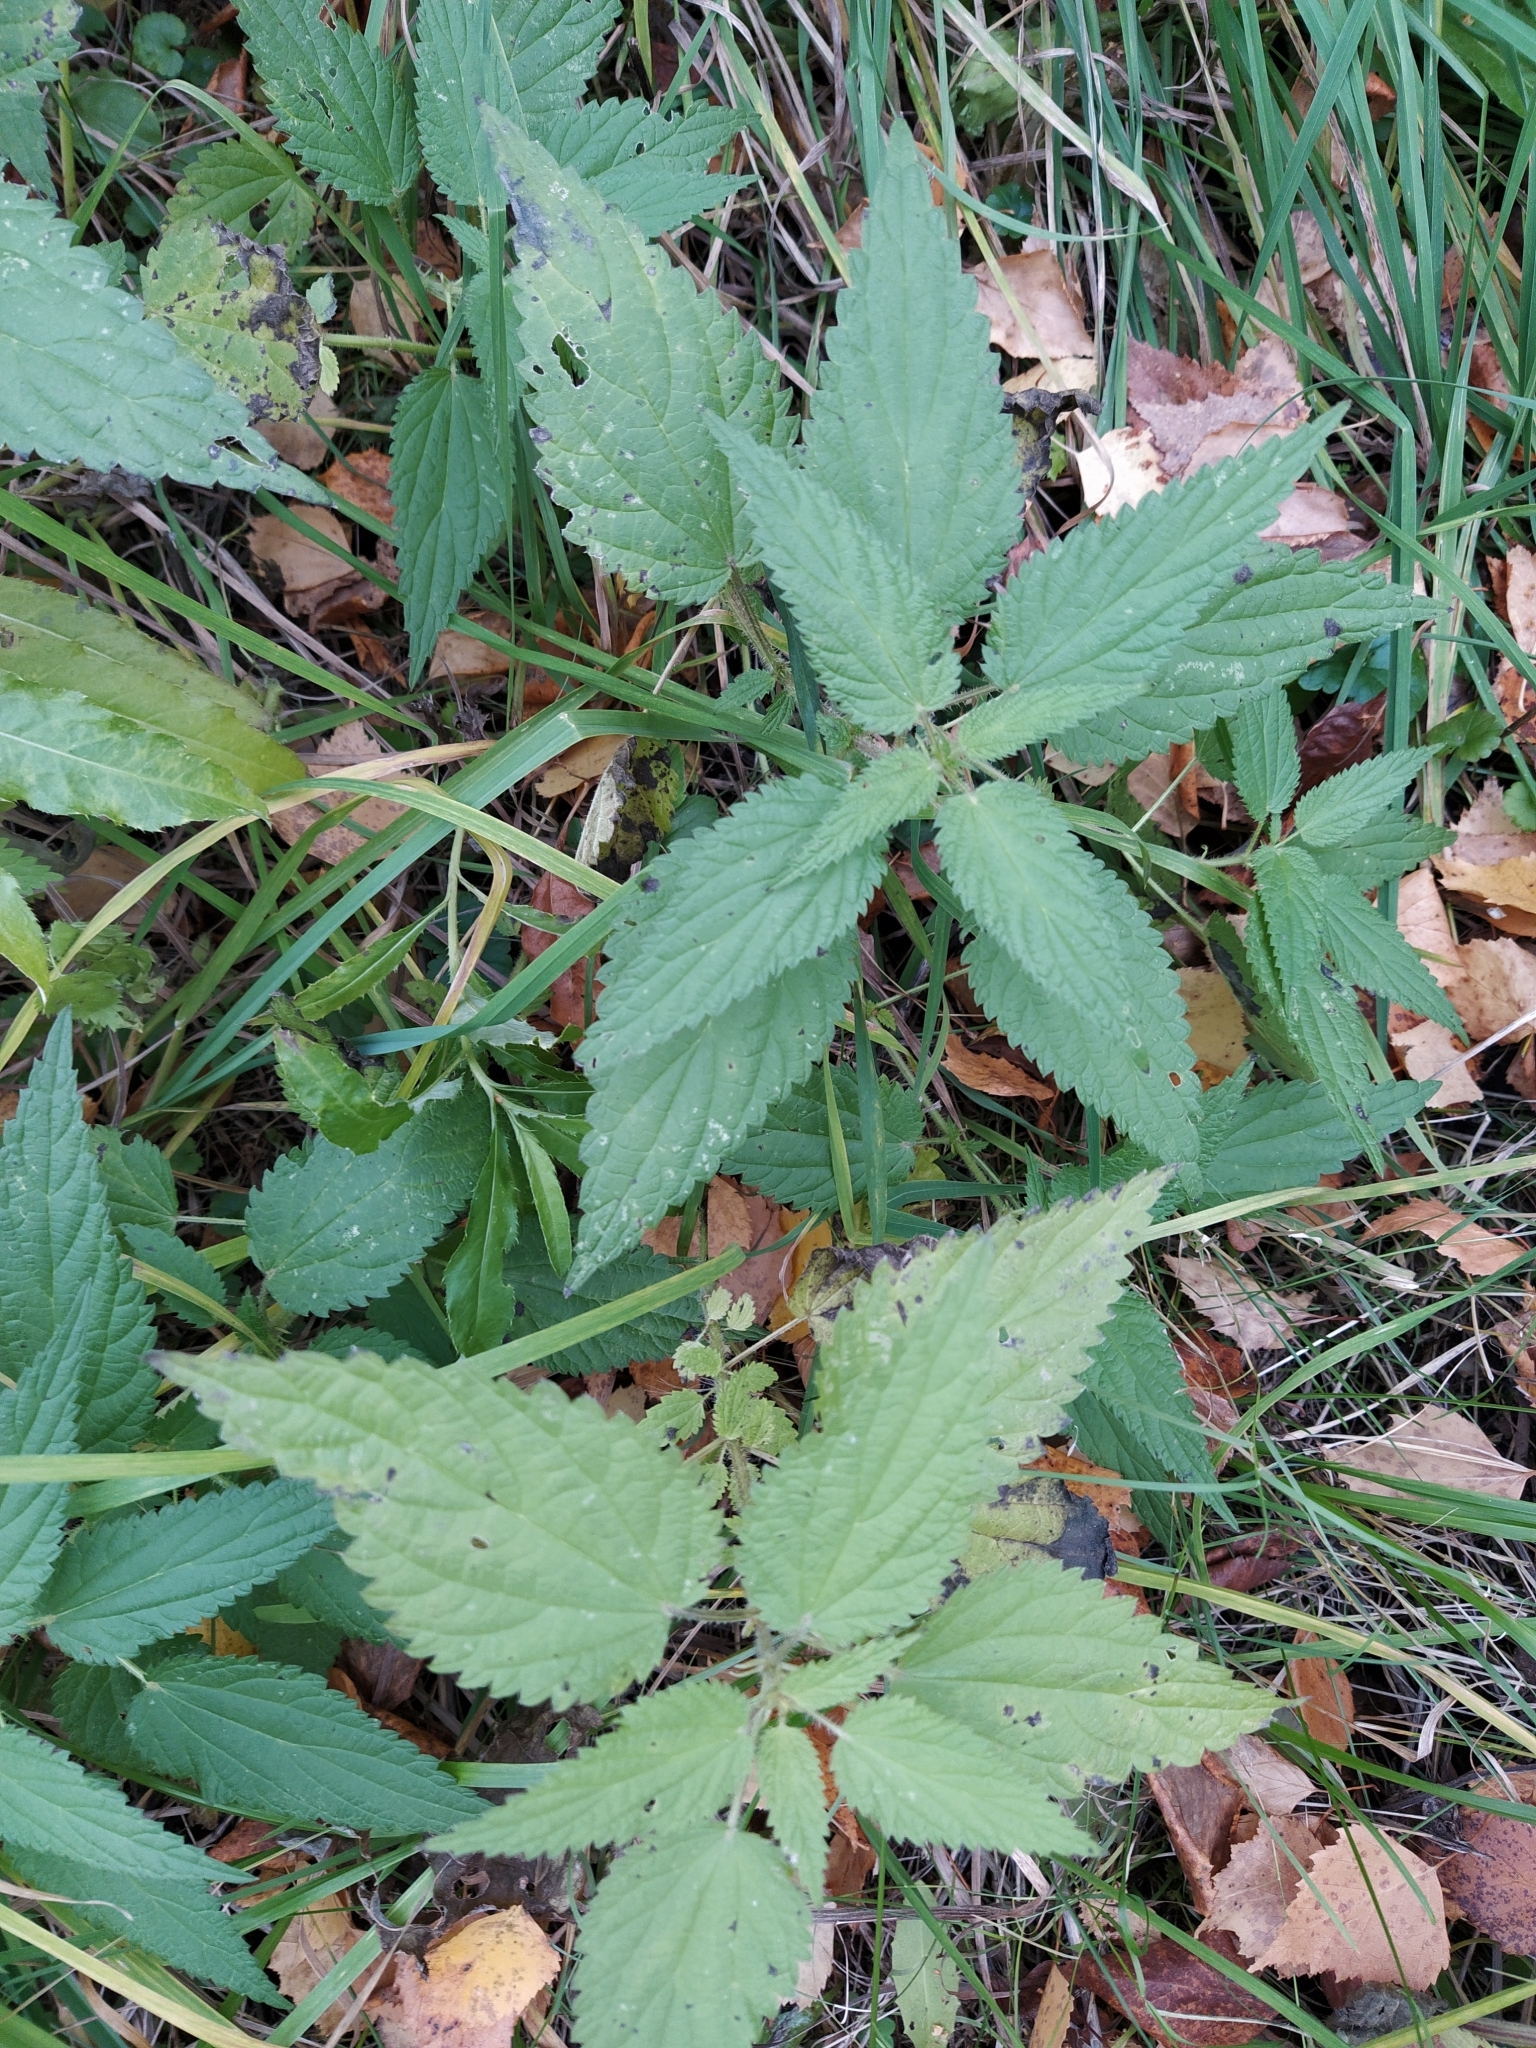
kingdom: Plantae
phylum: Tracheophyta
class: Magnoliopsida
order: Rosales
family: Urticaceae
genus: Urtica
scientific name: Urtica dioica
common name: Common nettle
